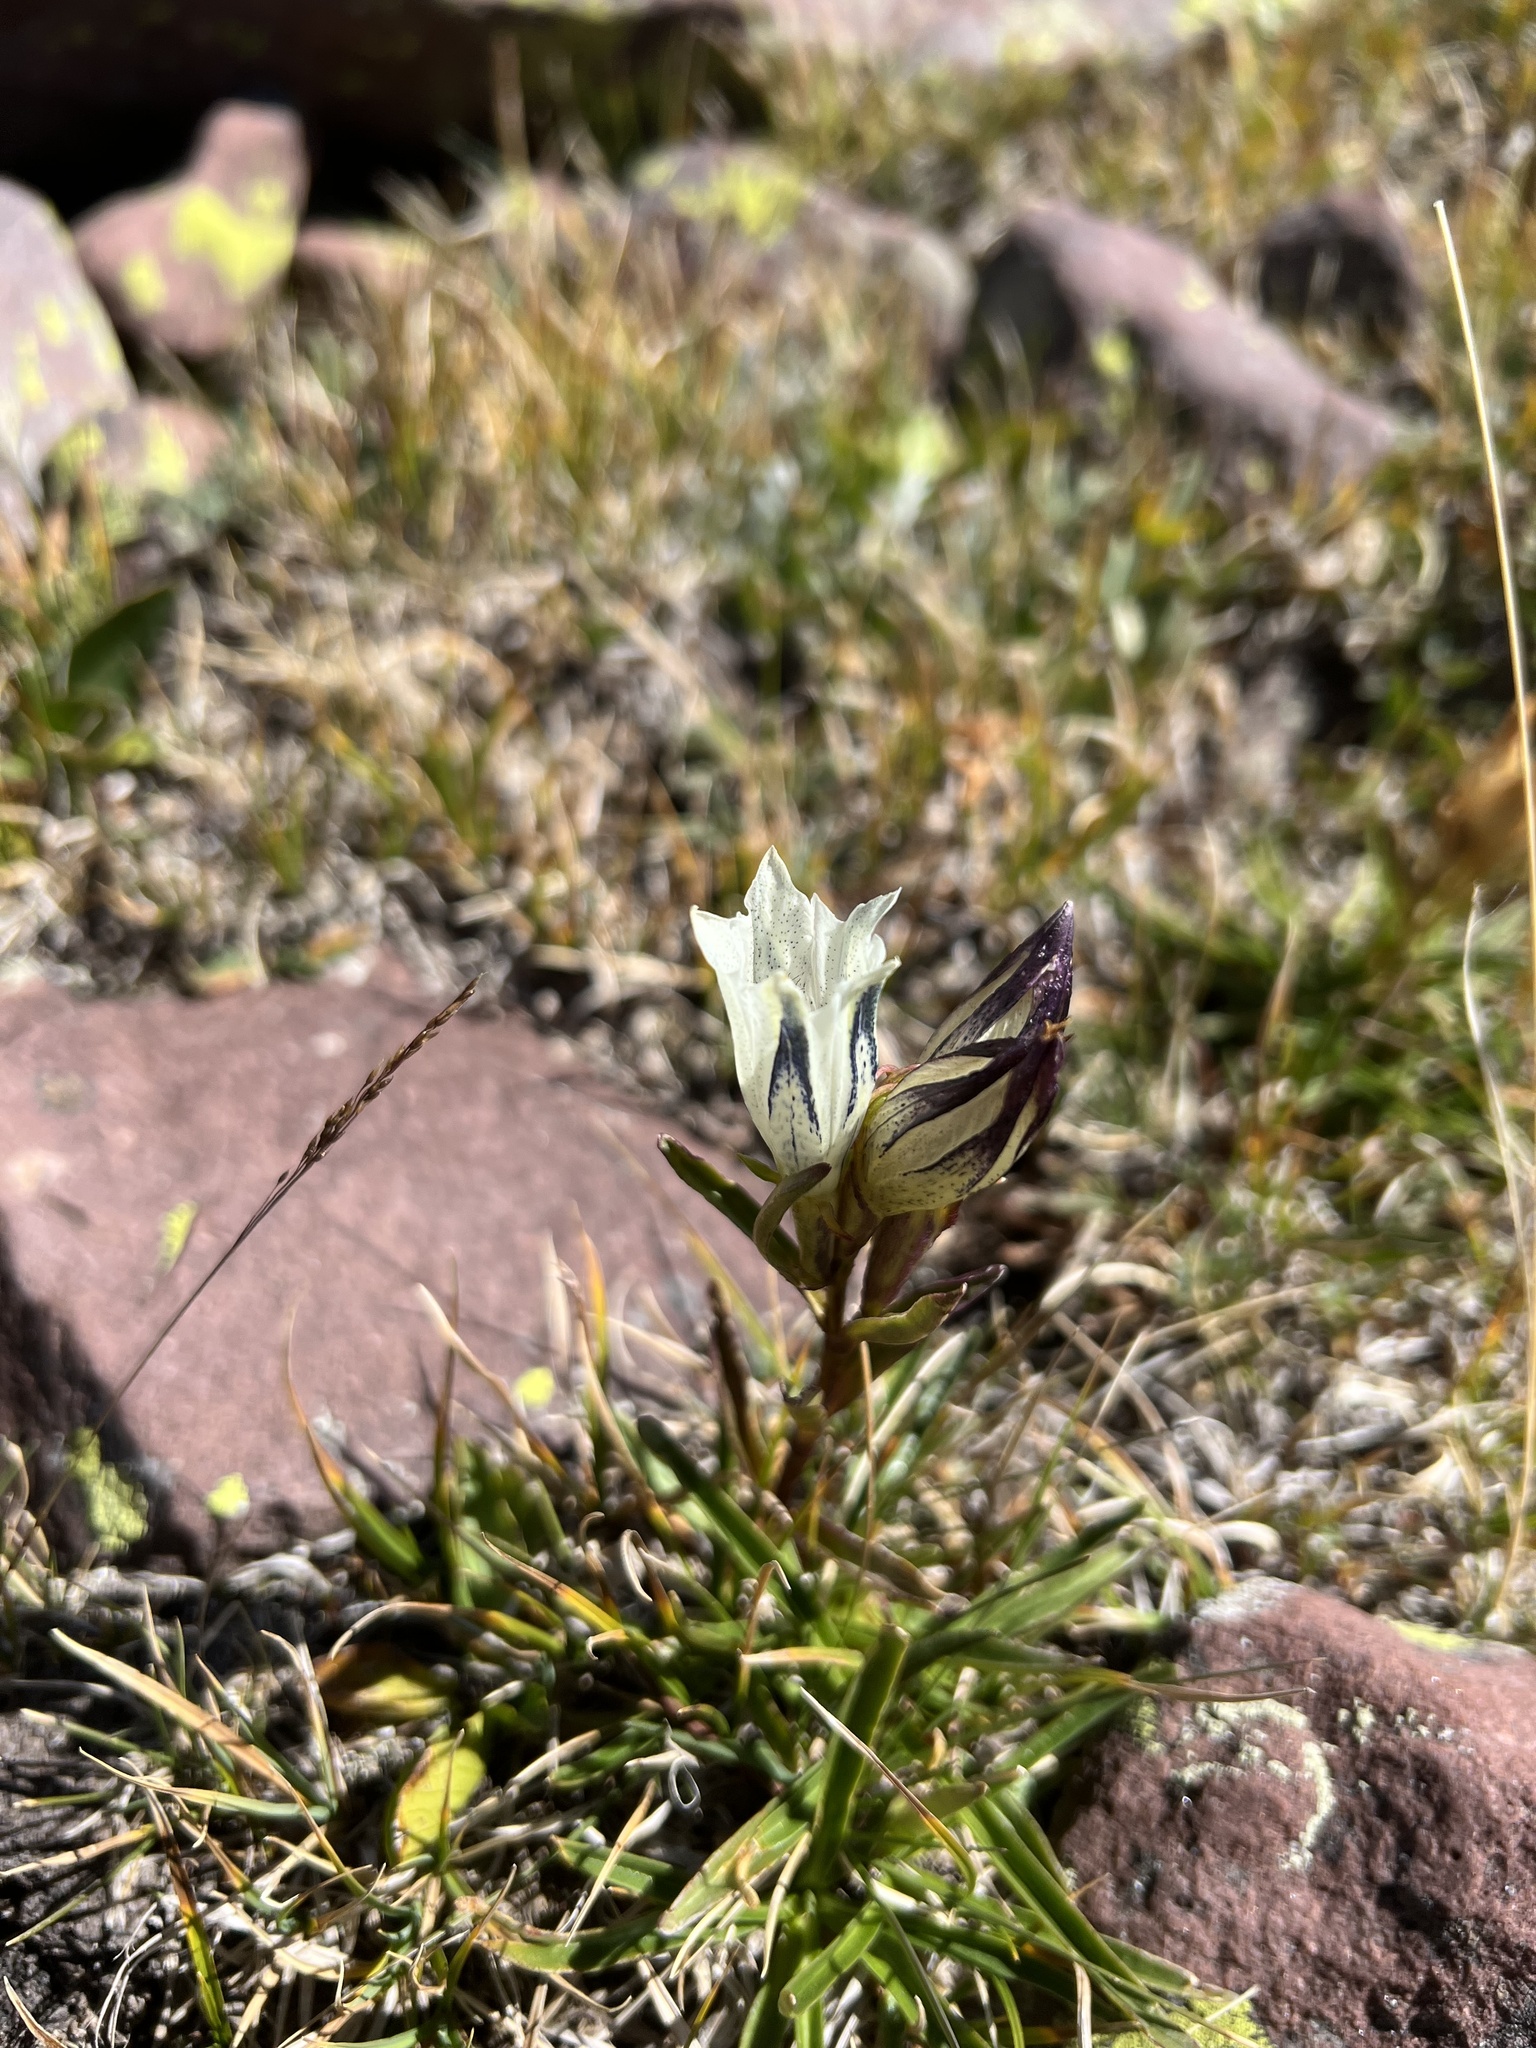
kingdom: Plantae
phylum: Tracheophyta
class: Magnoliopsida
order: Gentianales
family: Gentianaceae
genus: Gentiana
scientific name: Gentiana algida
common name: Arctic gentian
